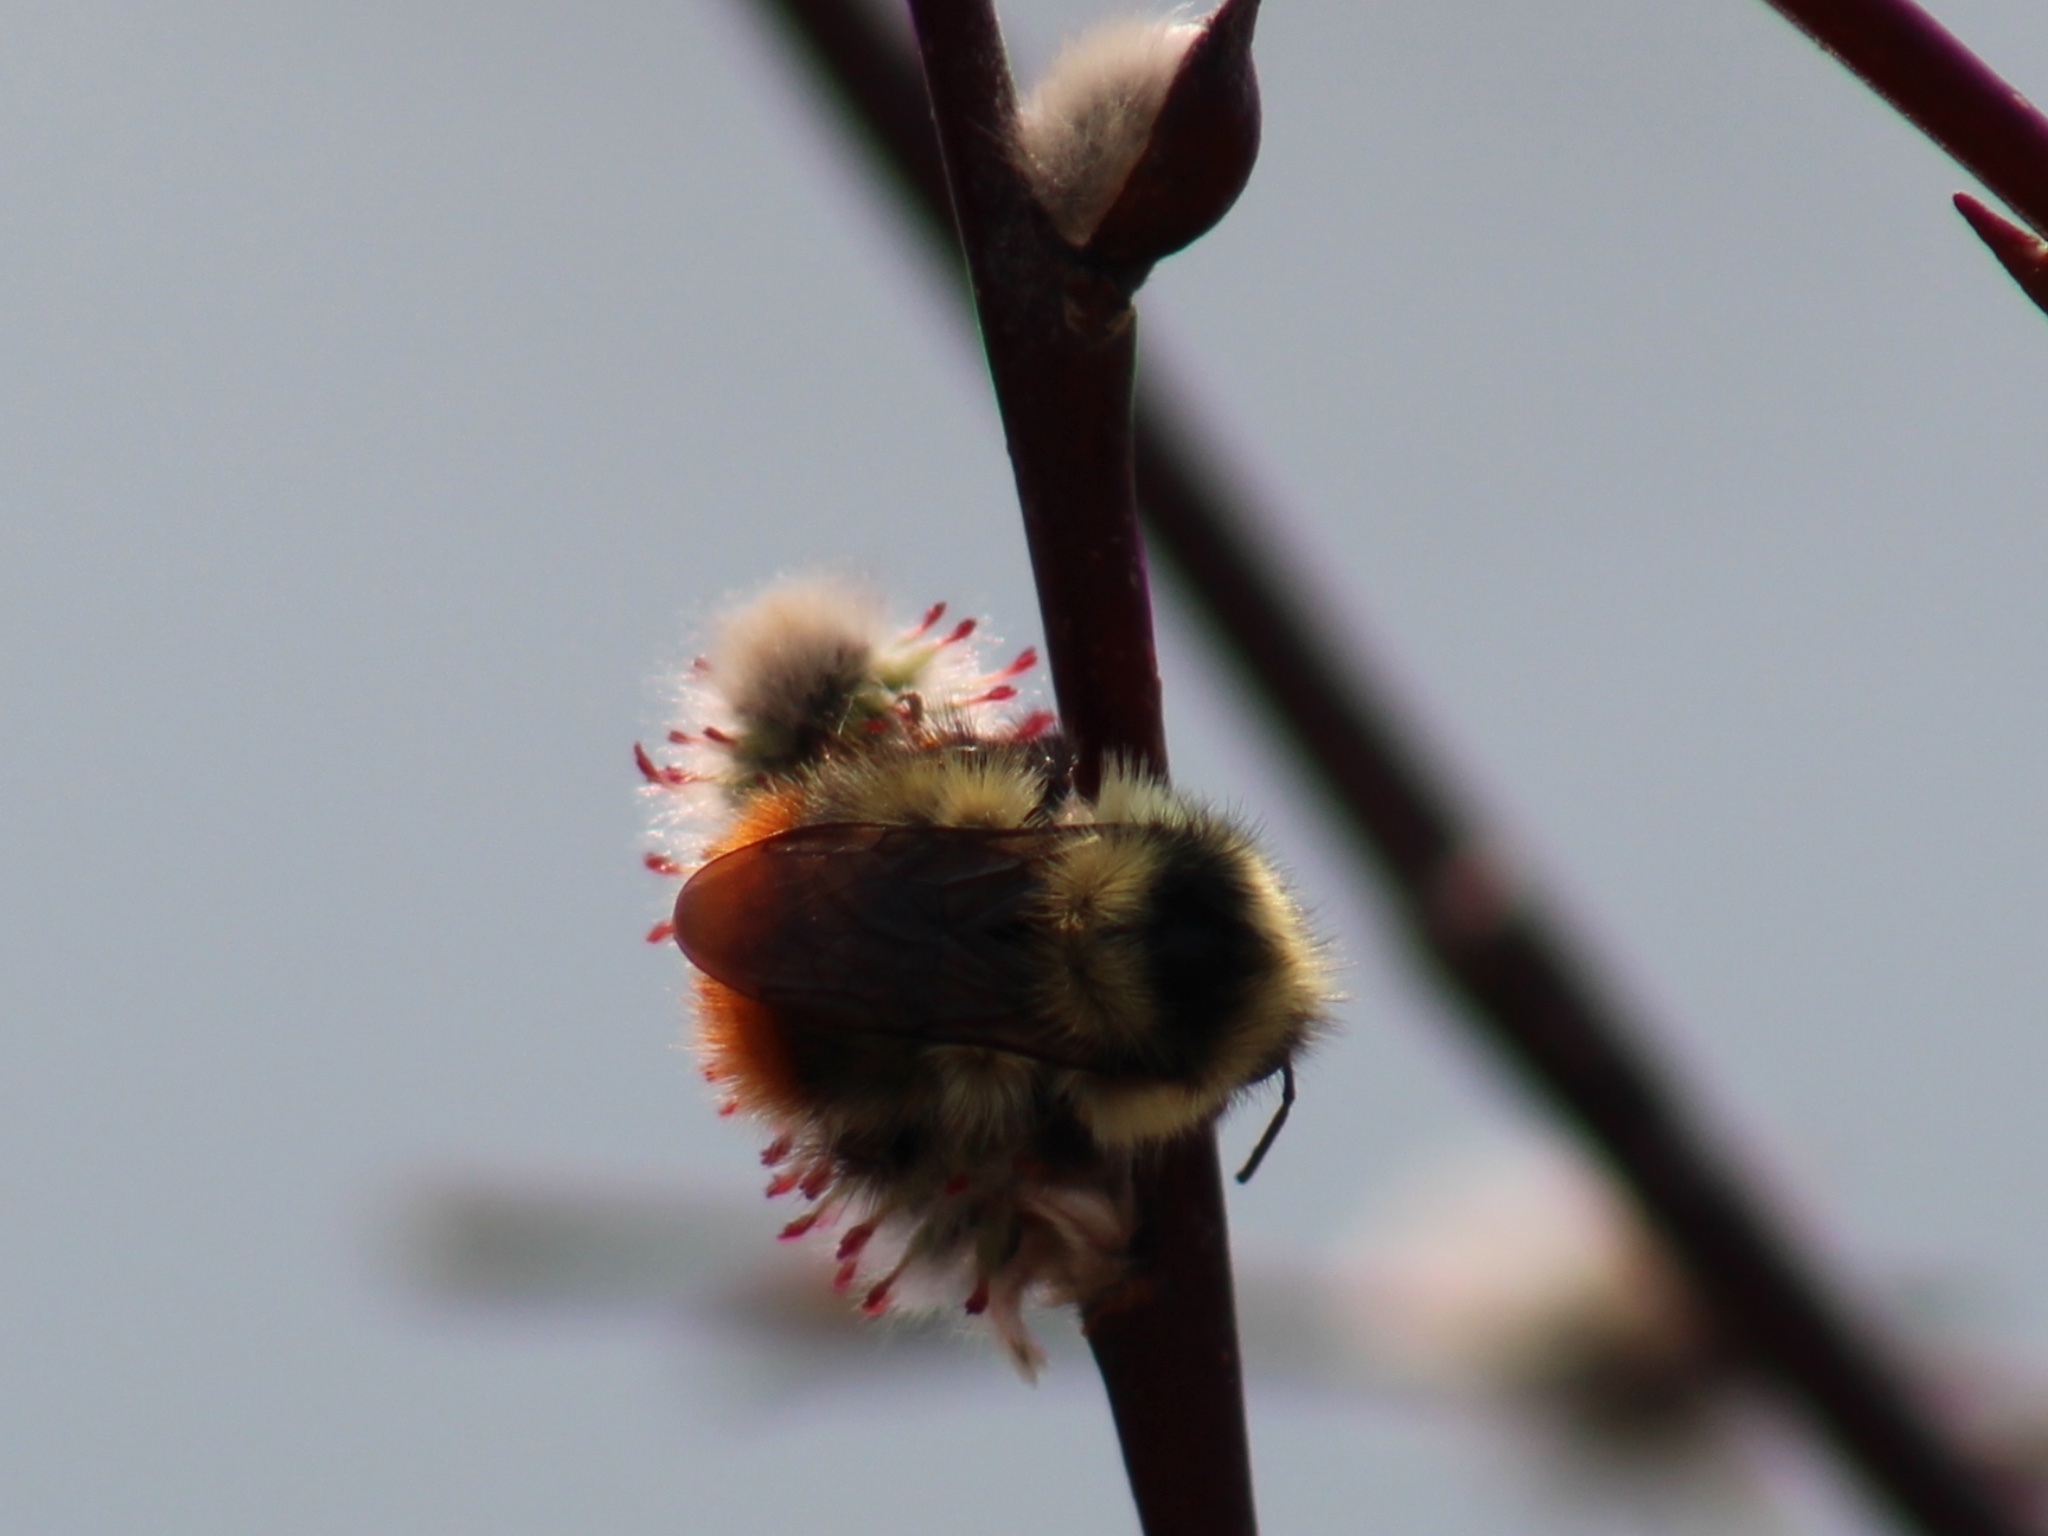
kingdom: Animalia
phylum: Arthropoda
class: Insecta
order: Hymenoptera
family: Apidae
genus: Bombus
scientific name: Bombus mixtus
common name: Fuzzy-horned bumble bee
